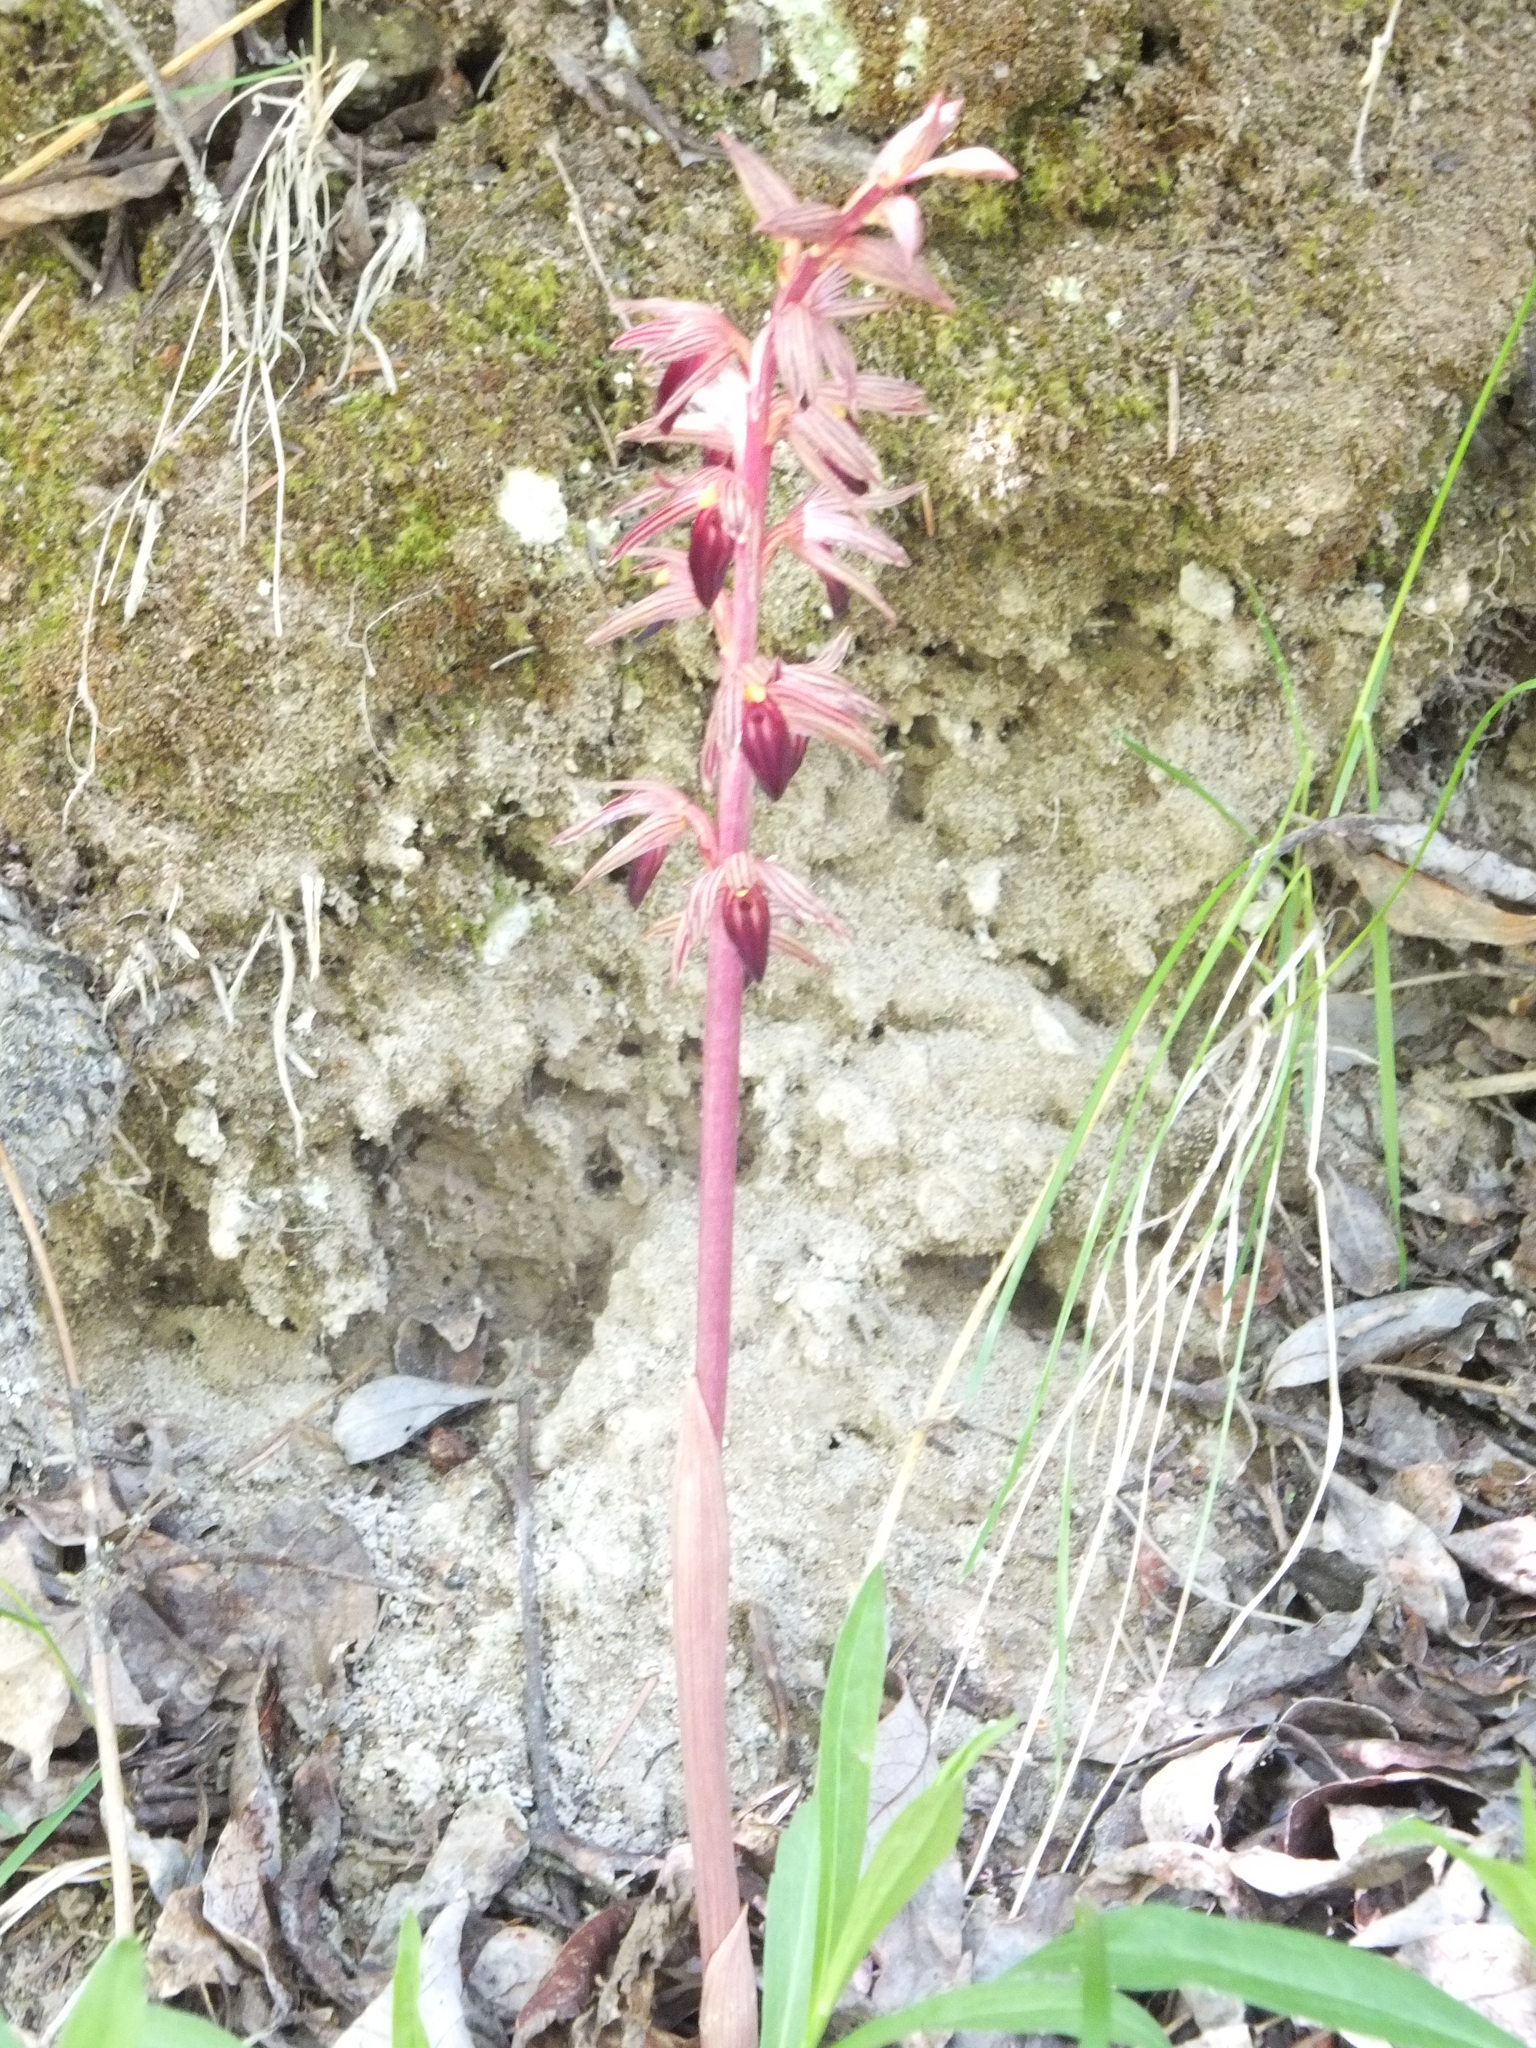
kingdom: Plantae
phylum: Tracheophyta
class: Liliopsida
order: Asparagales
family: Orchidaceae
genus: Corallorhiza
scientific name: Corallorhiza striata
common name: Hooded coralroot
